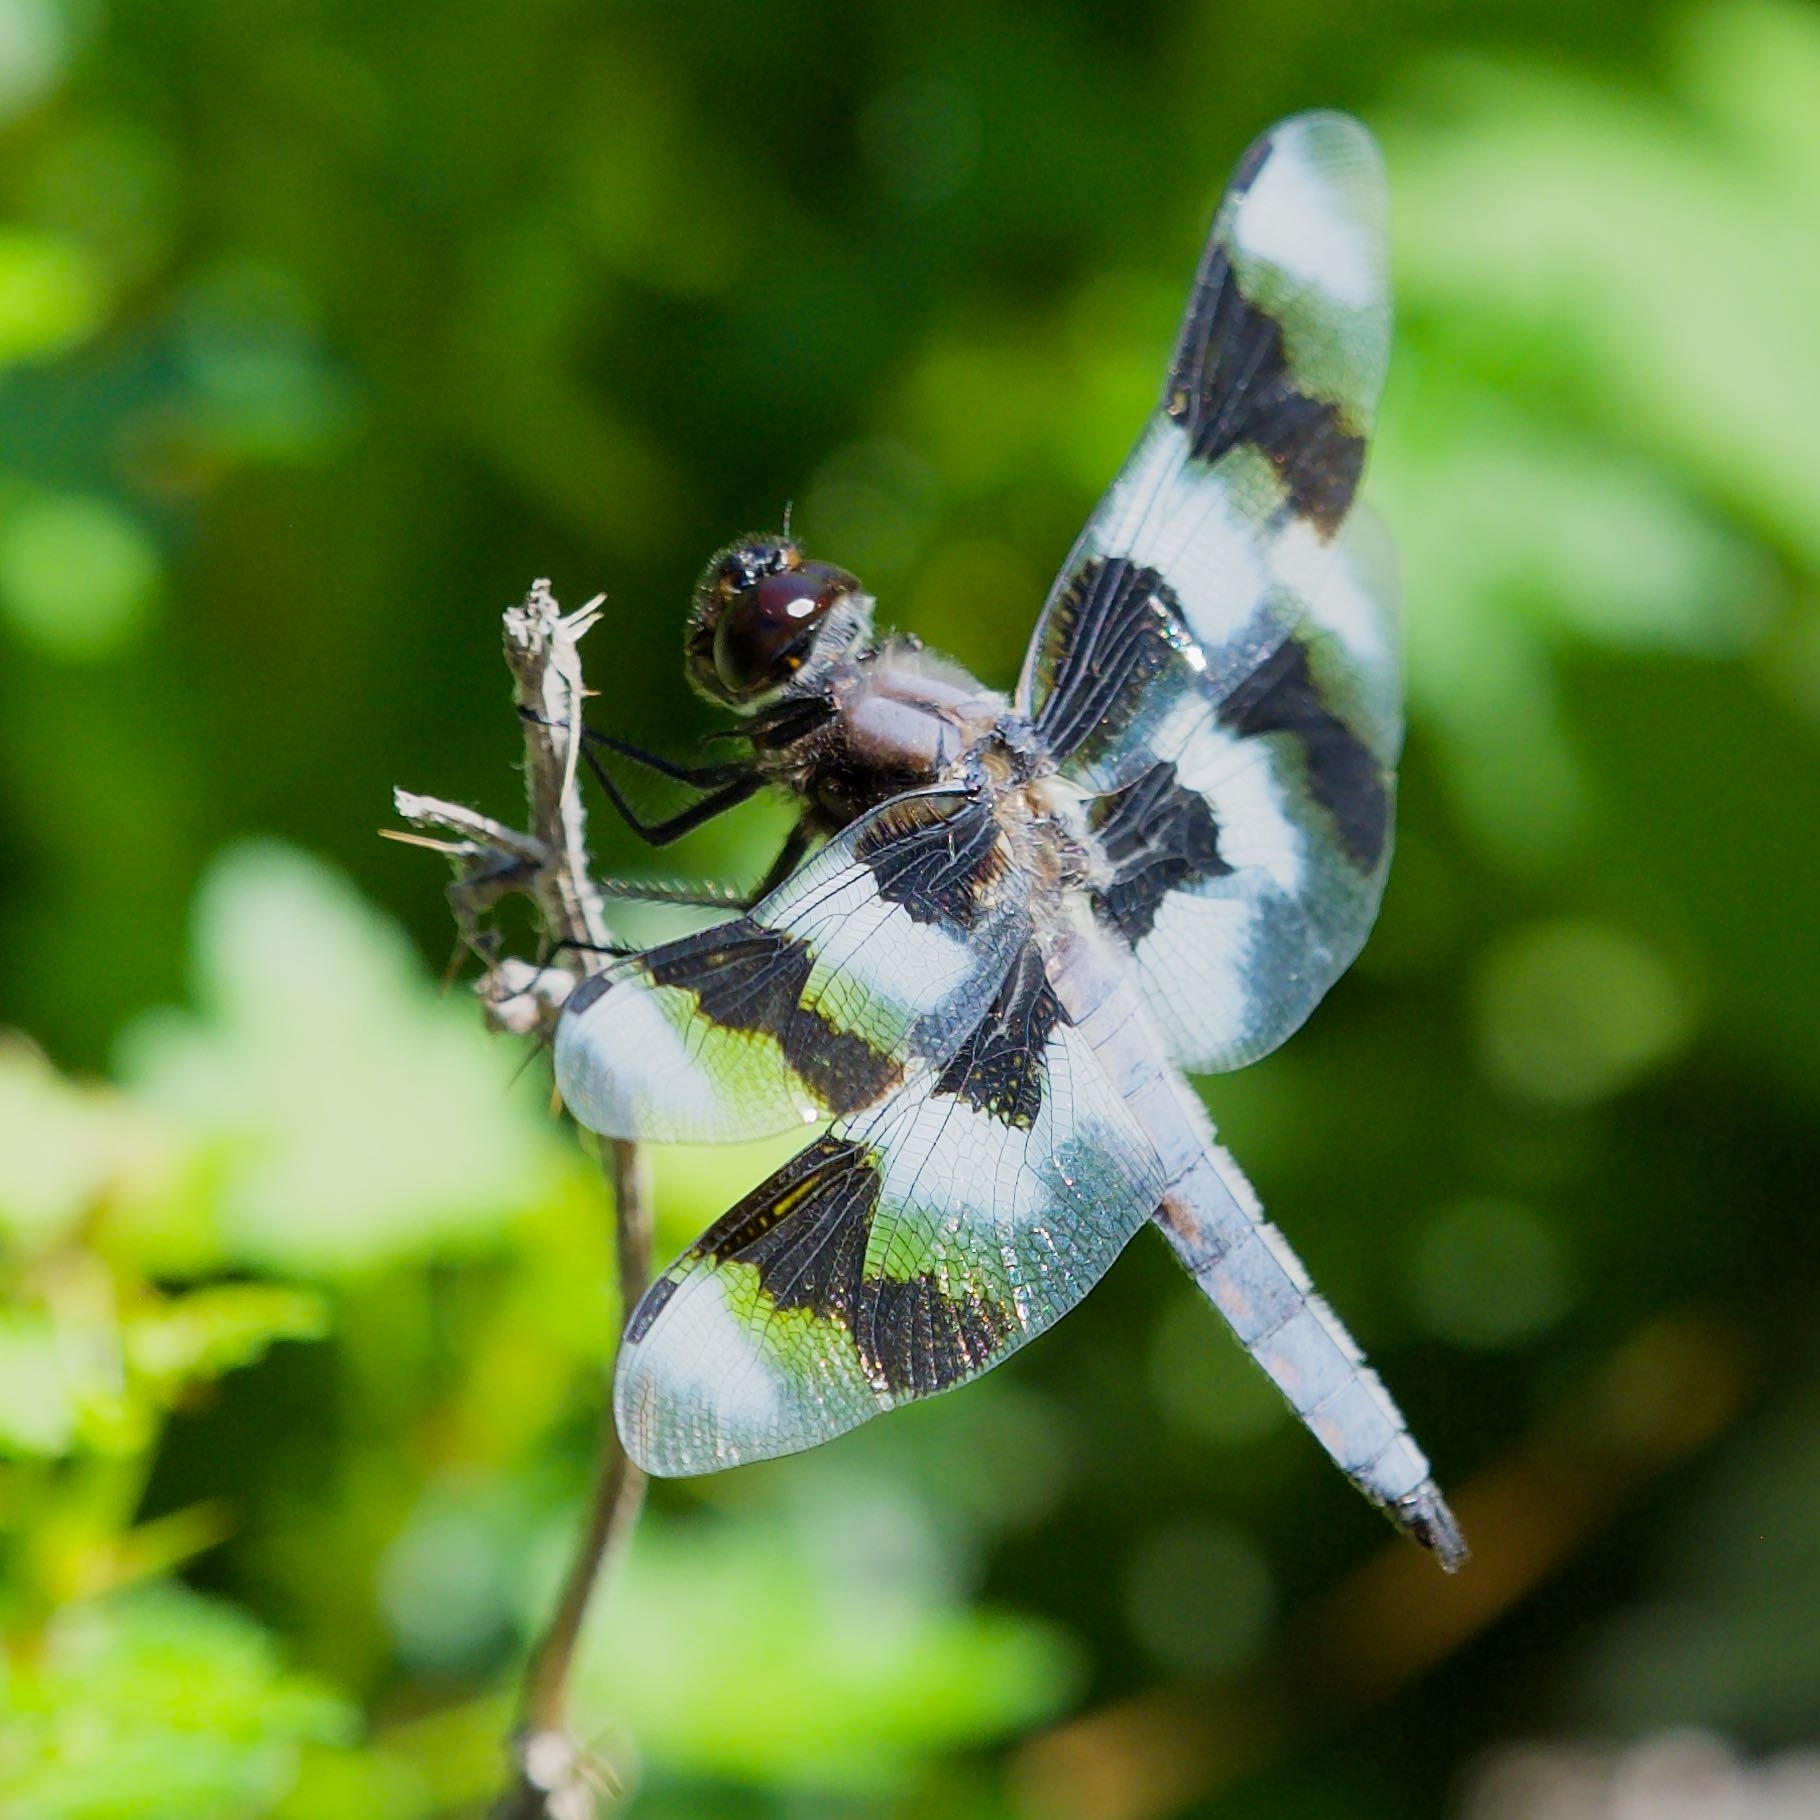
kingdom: Animalia
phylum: Arthropoda
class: Insecta
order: Odonata
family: Libellulidae
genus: Libellula
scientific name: Libellula forensis
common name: Eight-spotted skimmer
